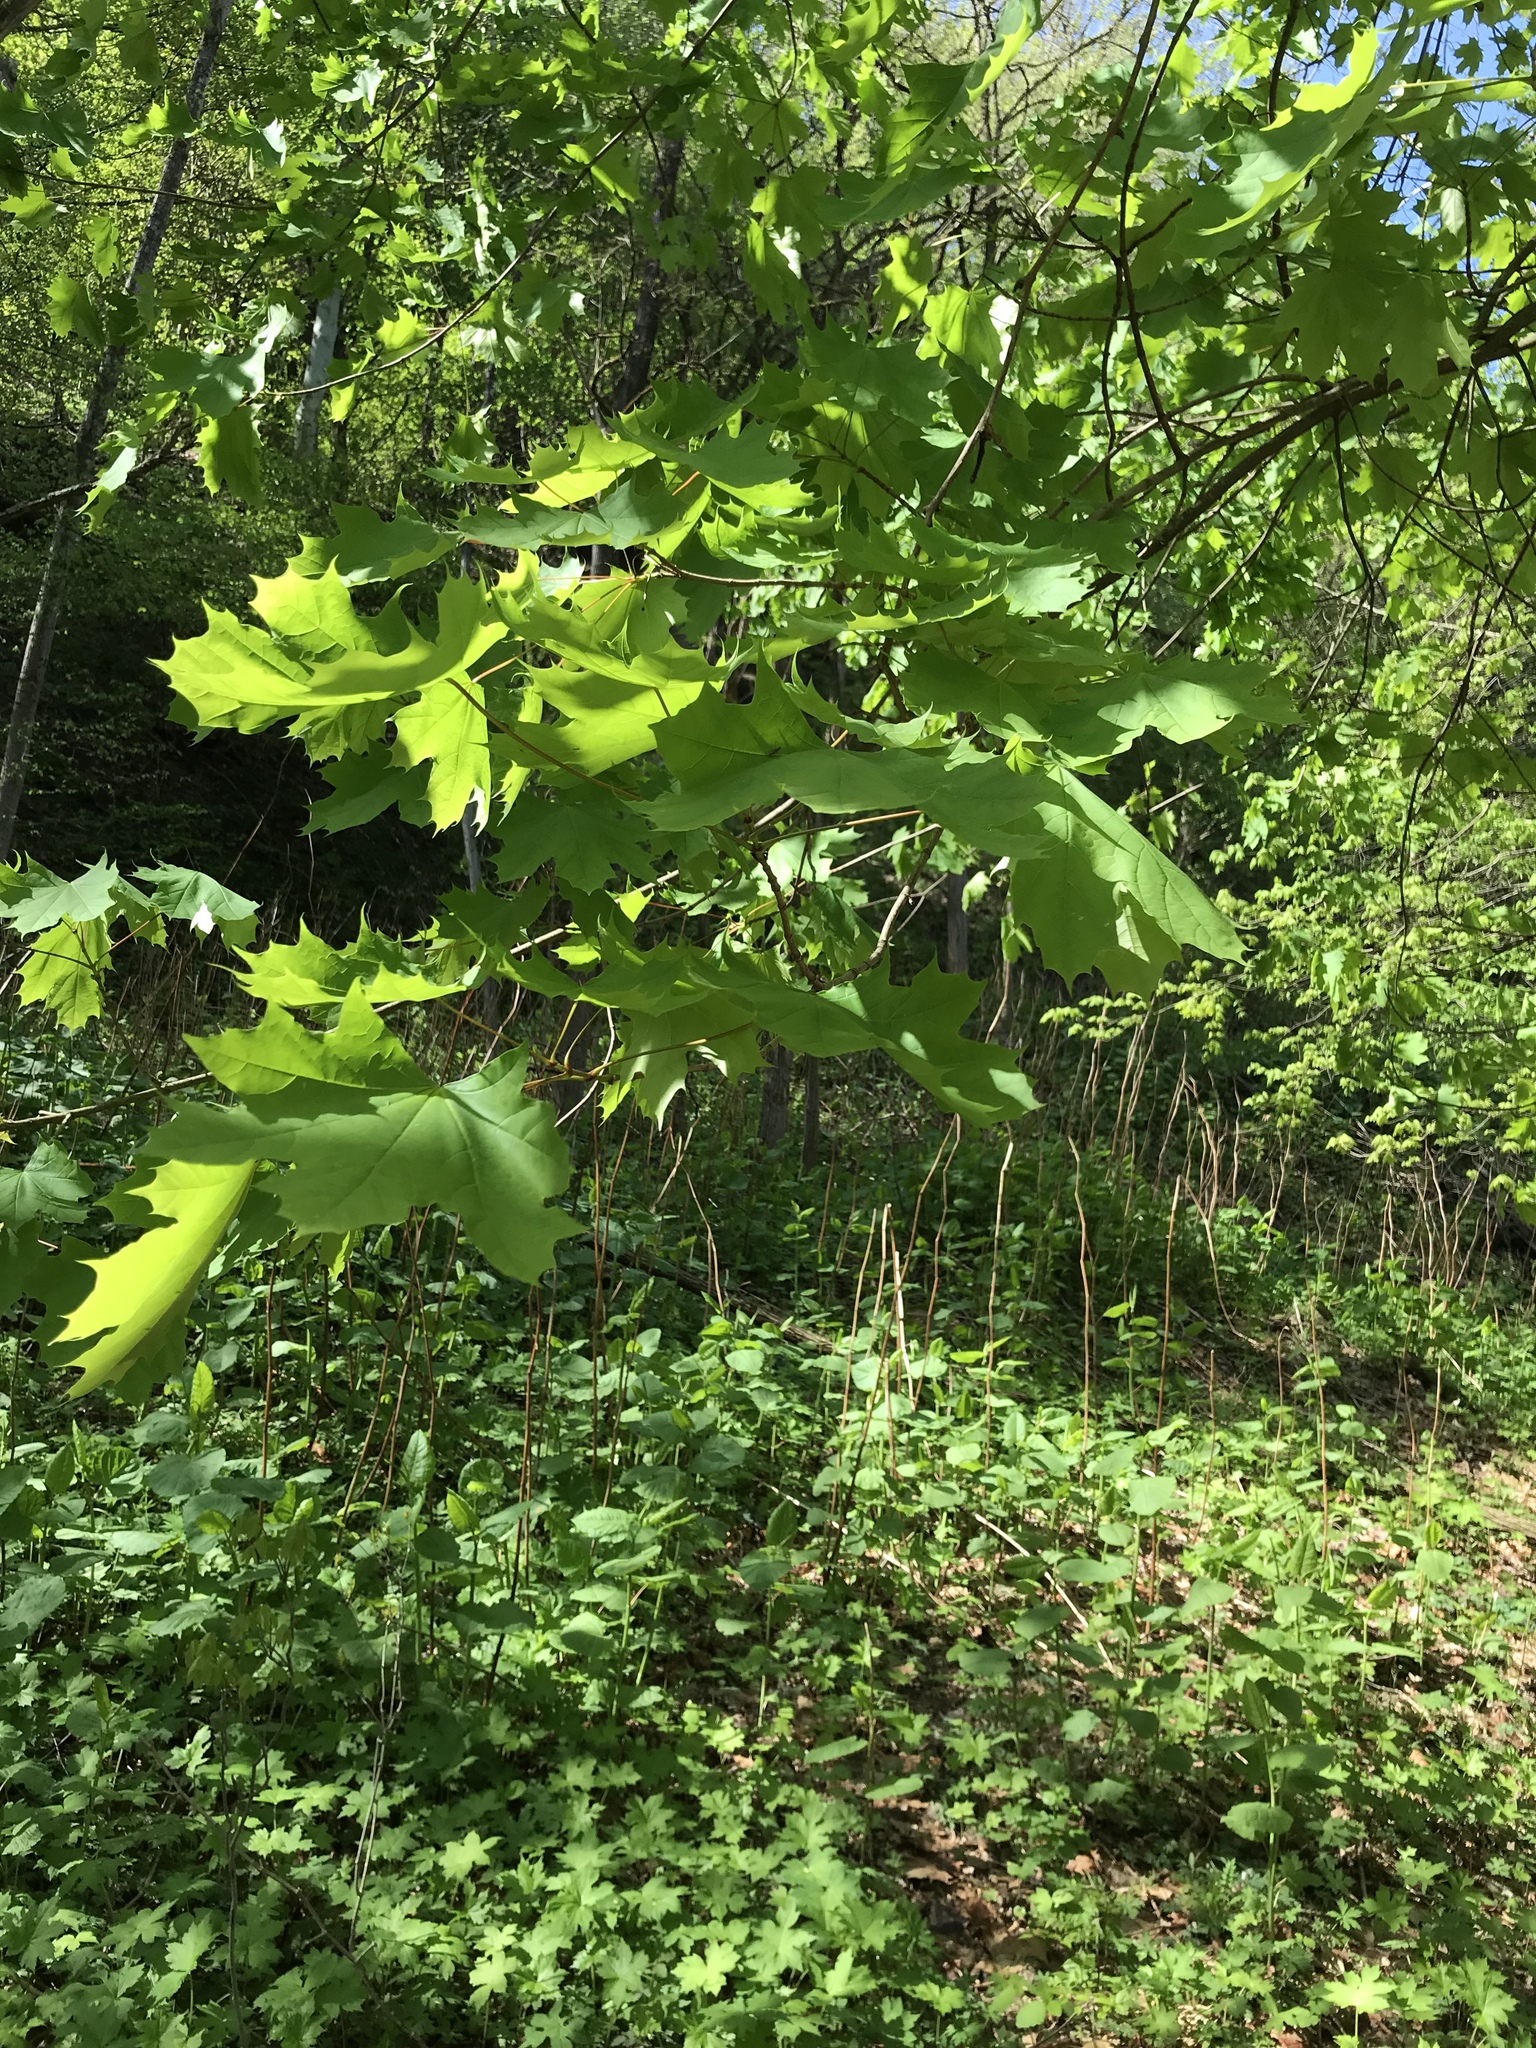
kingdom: Plantae
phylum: Tracheophyta
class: Magnoliopsida
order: Sapindales
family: Sapindaceae
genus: Acer
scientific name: Acer platanoides
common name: Norway maple
